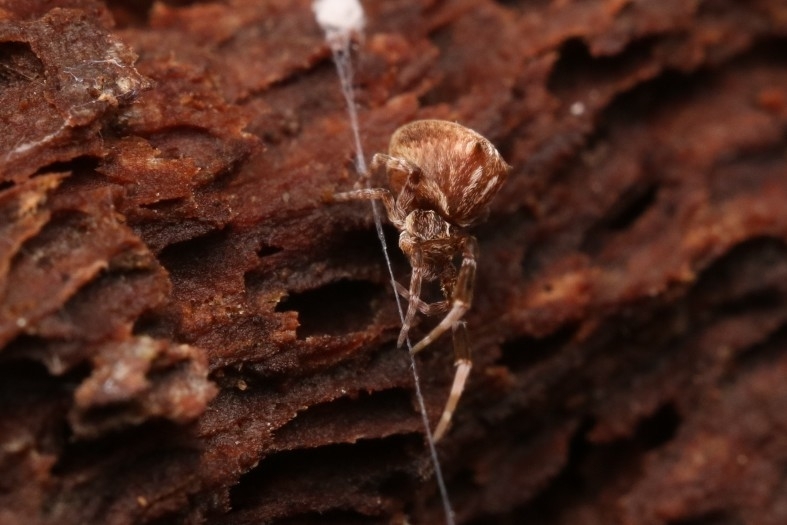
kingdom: Animalia
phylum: Arthropoda
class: Arachnida
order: Araneae
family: Uloboridae
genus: Uloborus
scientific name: Uloborus glomosus
